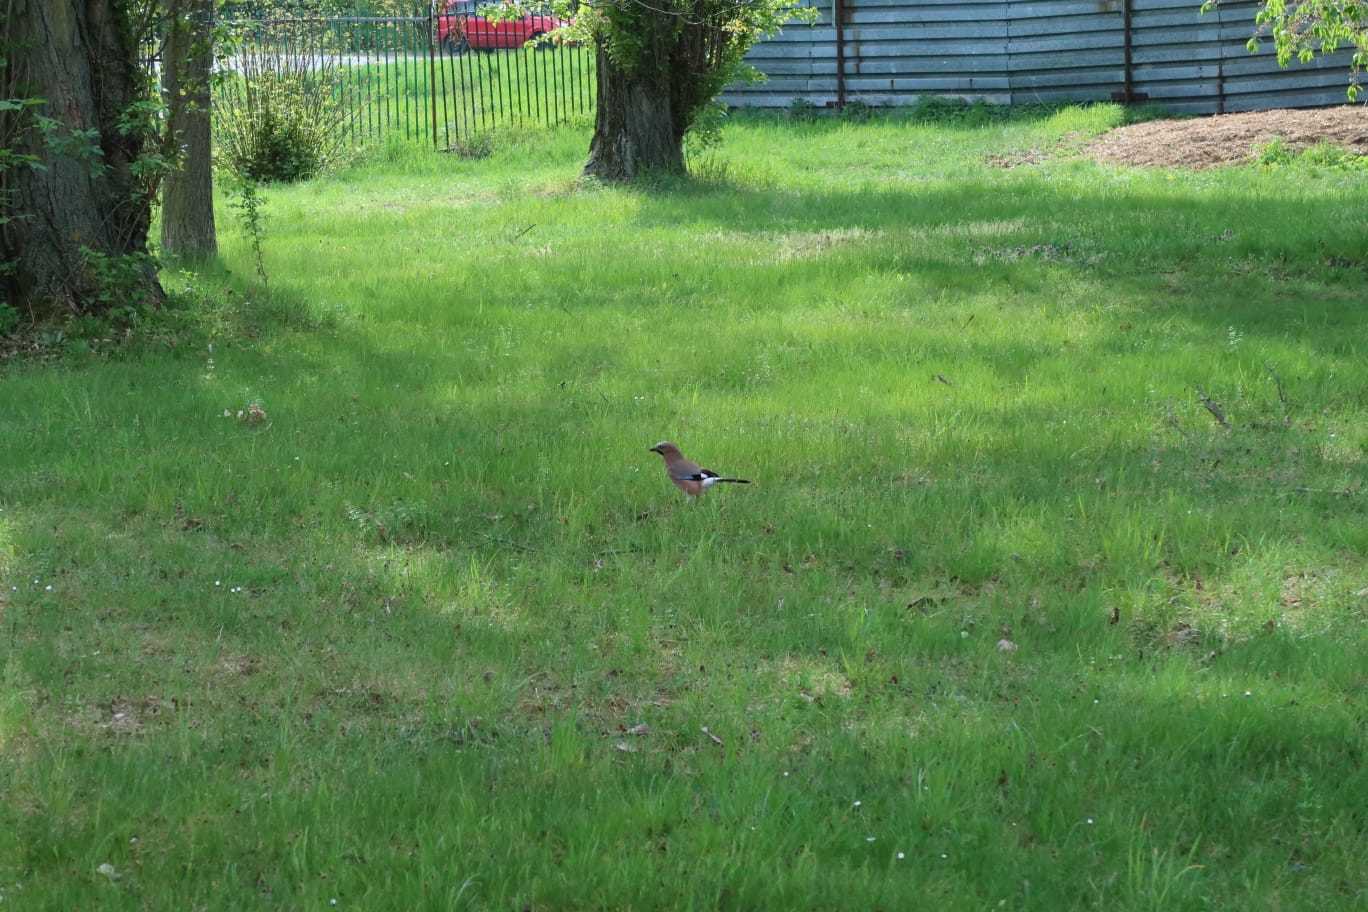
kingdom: Animalia
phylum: Chordata
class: Aves
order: Passeriformes
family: Corvidae
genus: Garrulus
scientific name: Garrulus glandarius
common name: Eurasian jay
